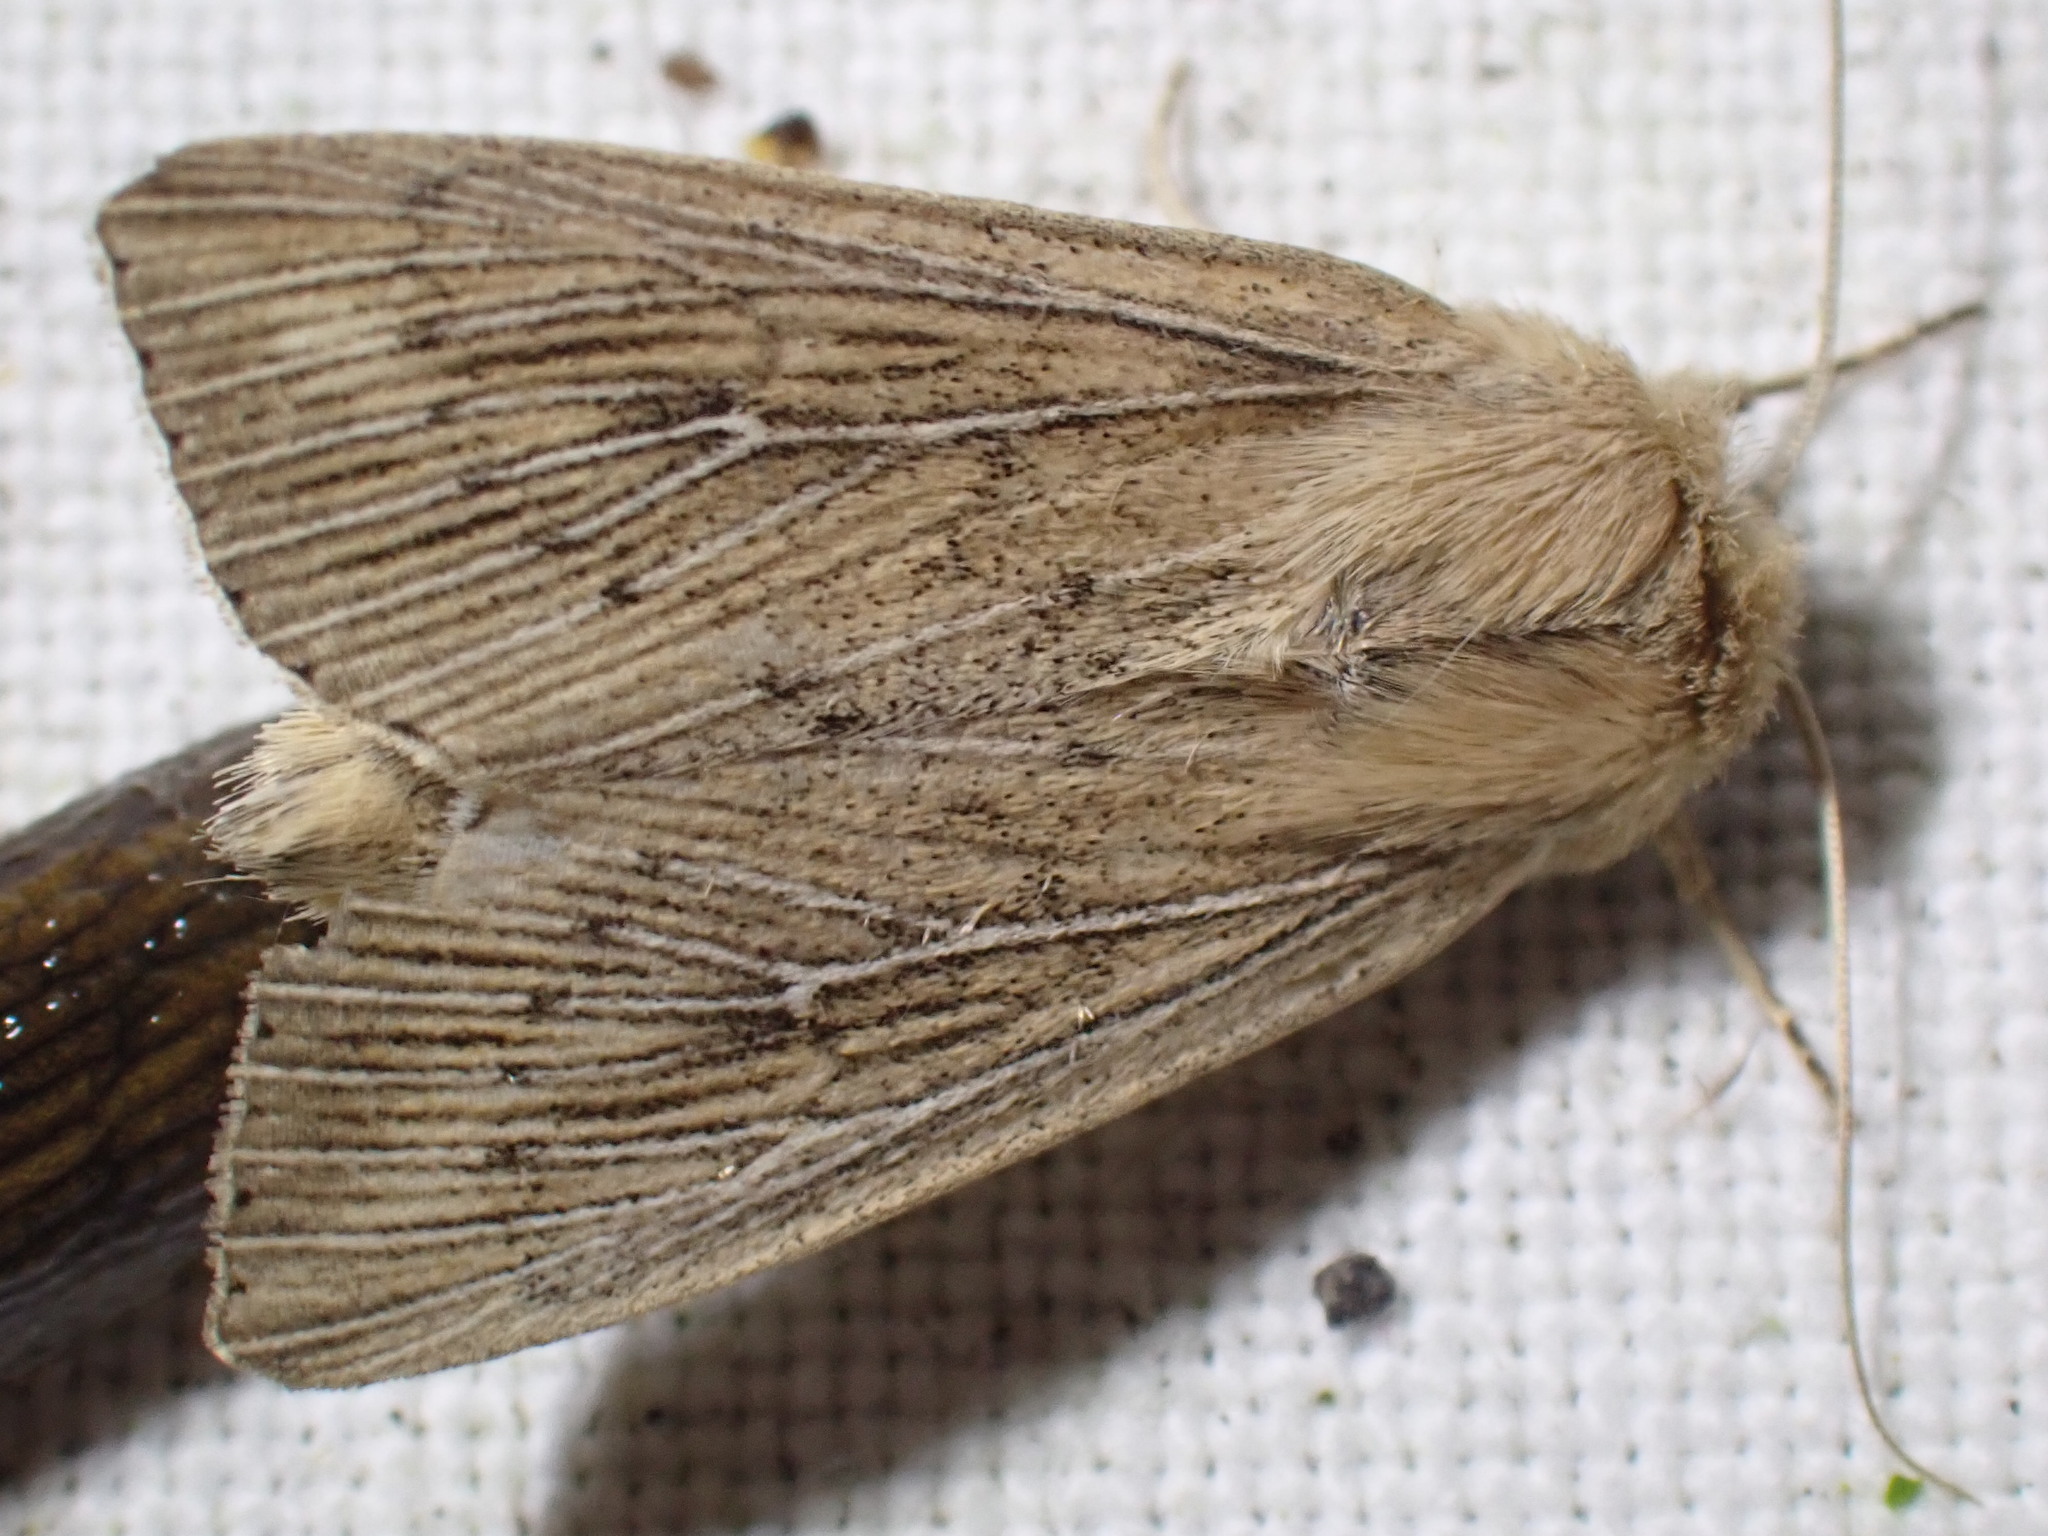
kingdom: Animalia
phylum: Arthropoda
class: Insecta
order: Lepidoptera
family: Noctuidae
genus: Leucania
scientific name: Leucania obsoleta
